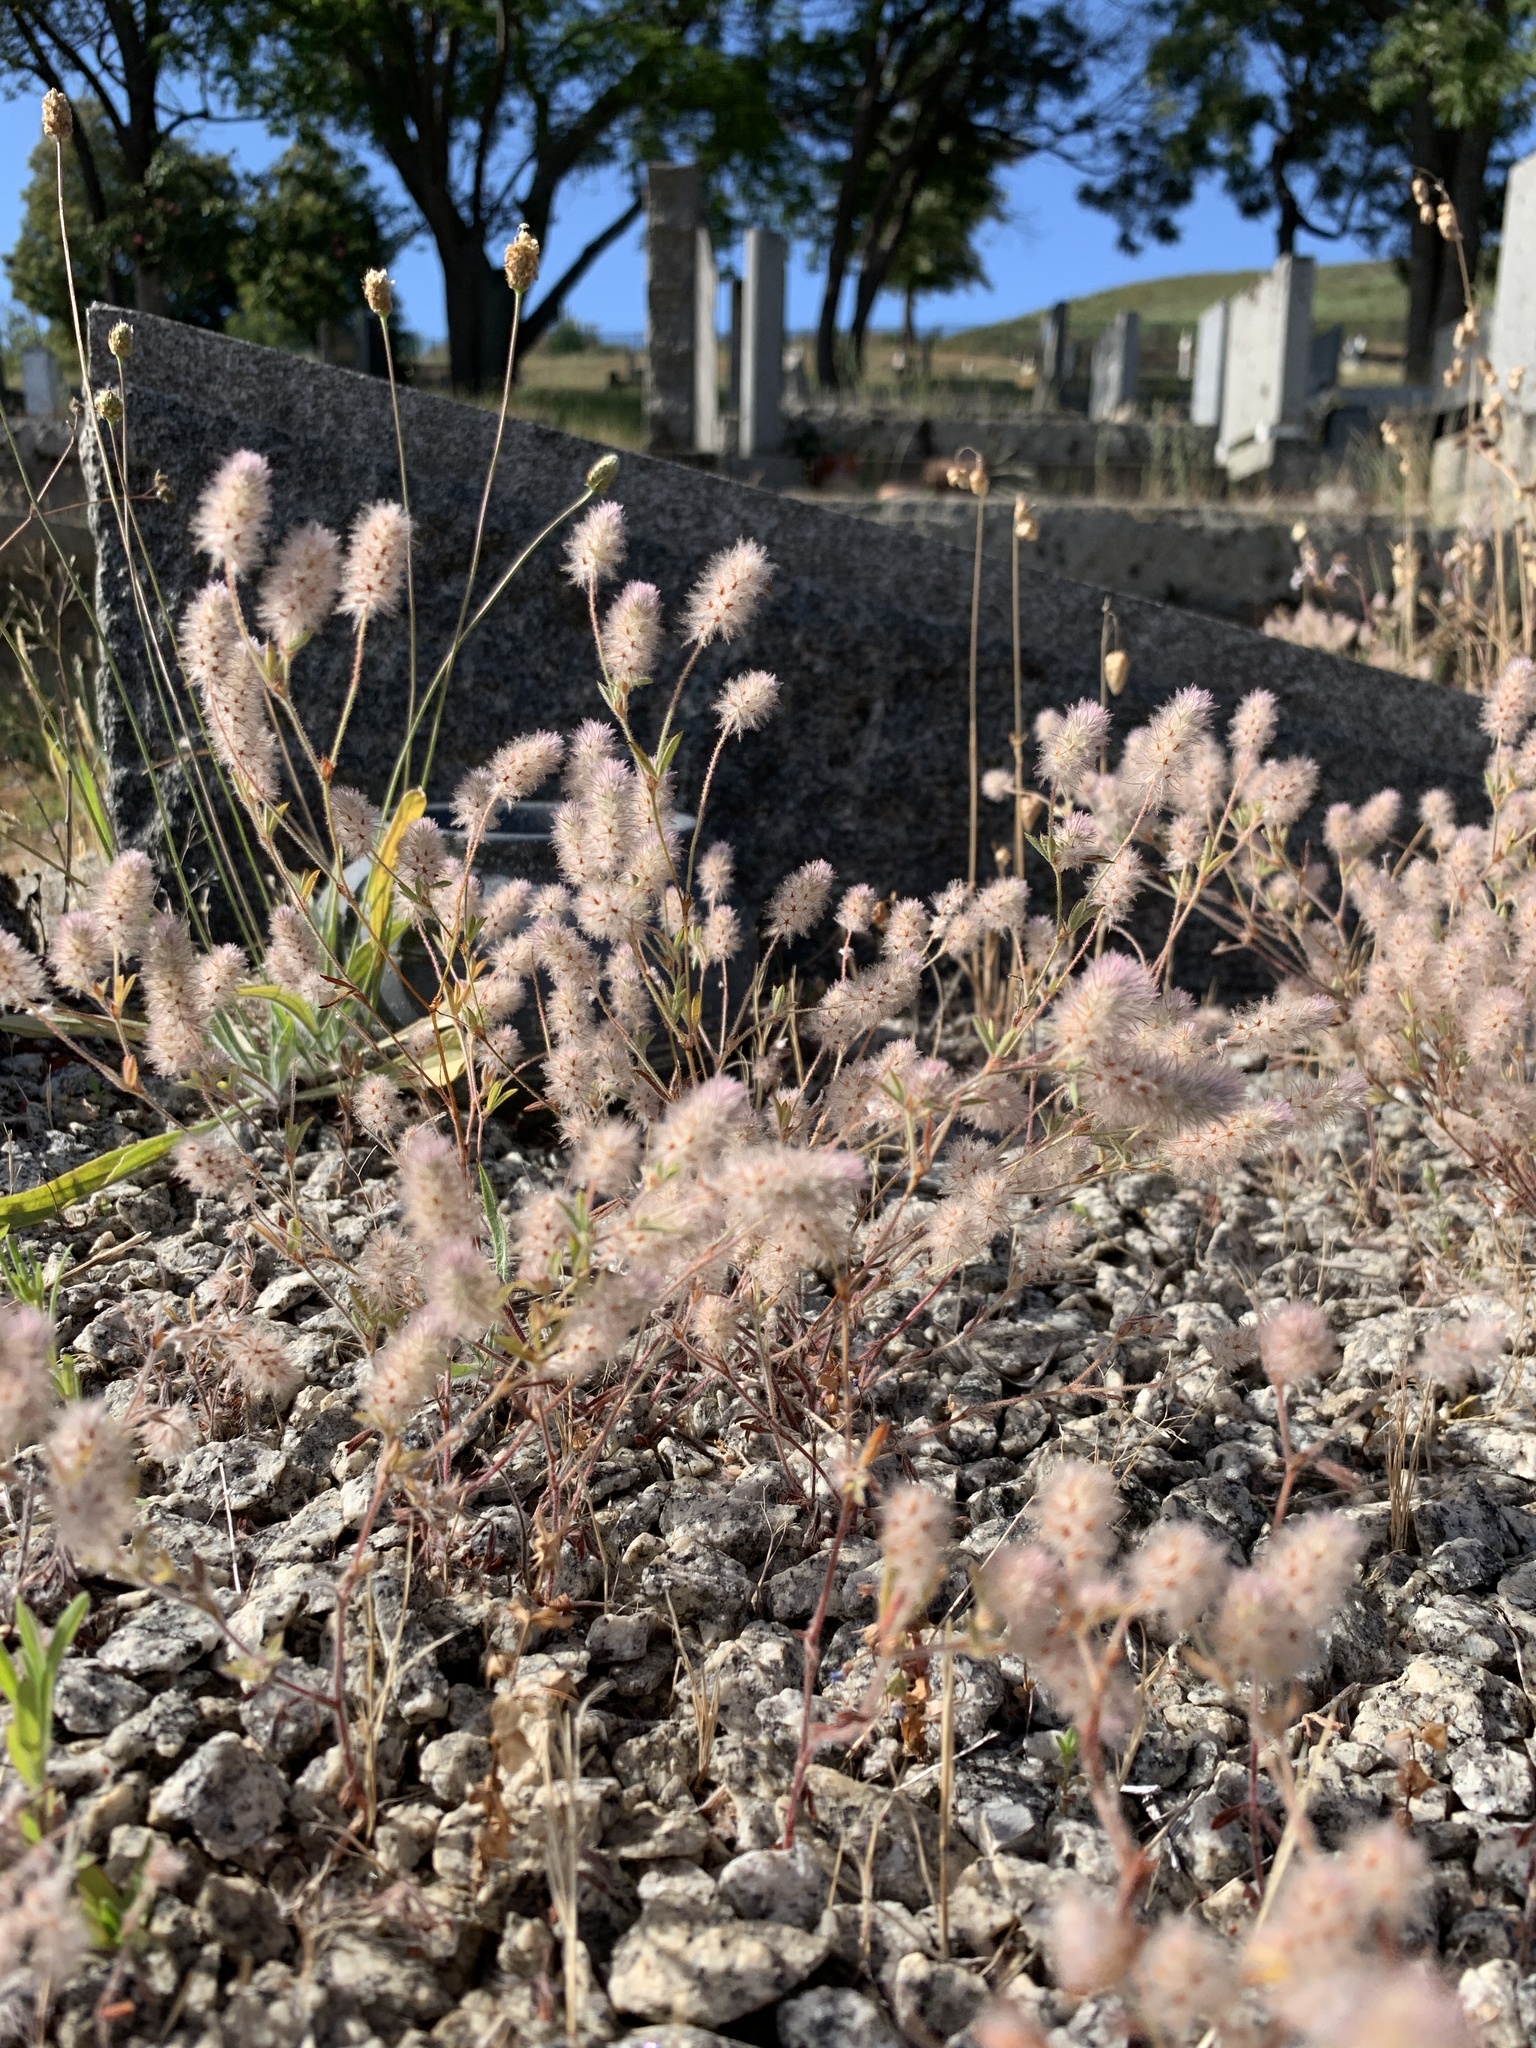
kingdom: Plantae
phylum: Tracheophyta
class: Magnoliopsida
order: Fabales
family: Fabaceae
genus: Trifolium
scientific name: Trifolium arvense
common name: Hare's-foot clover
